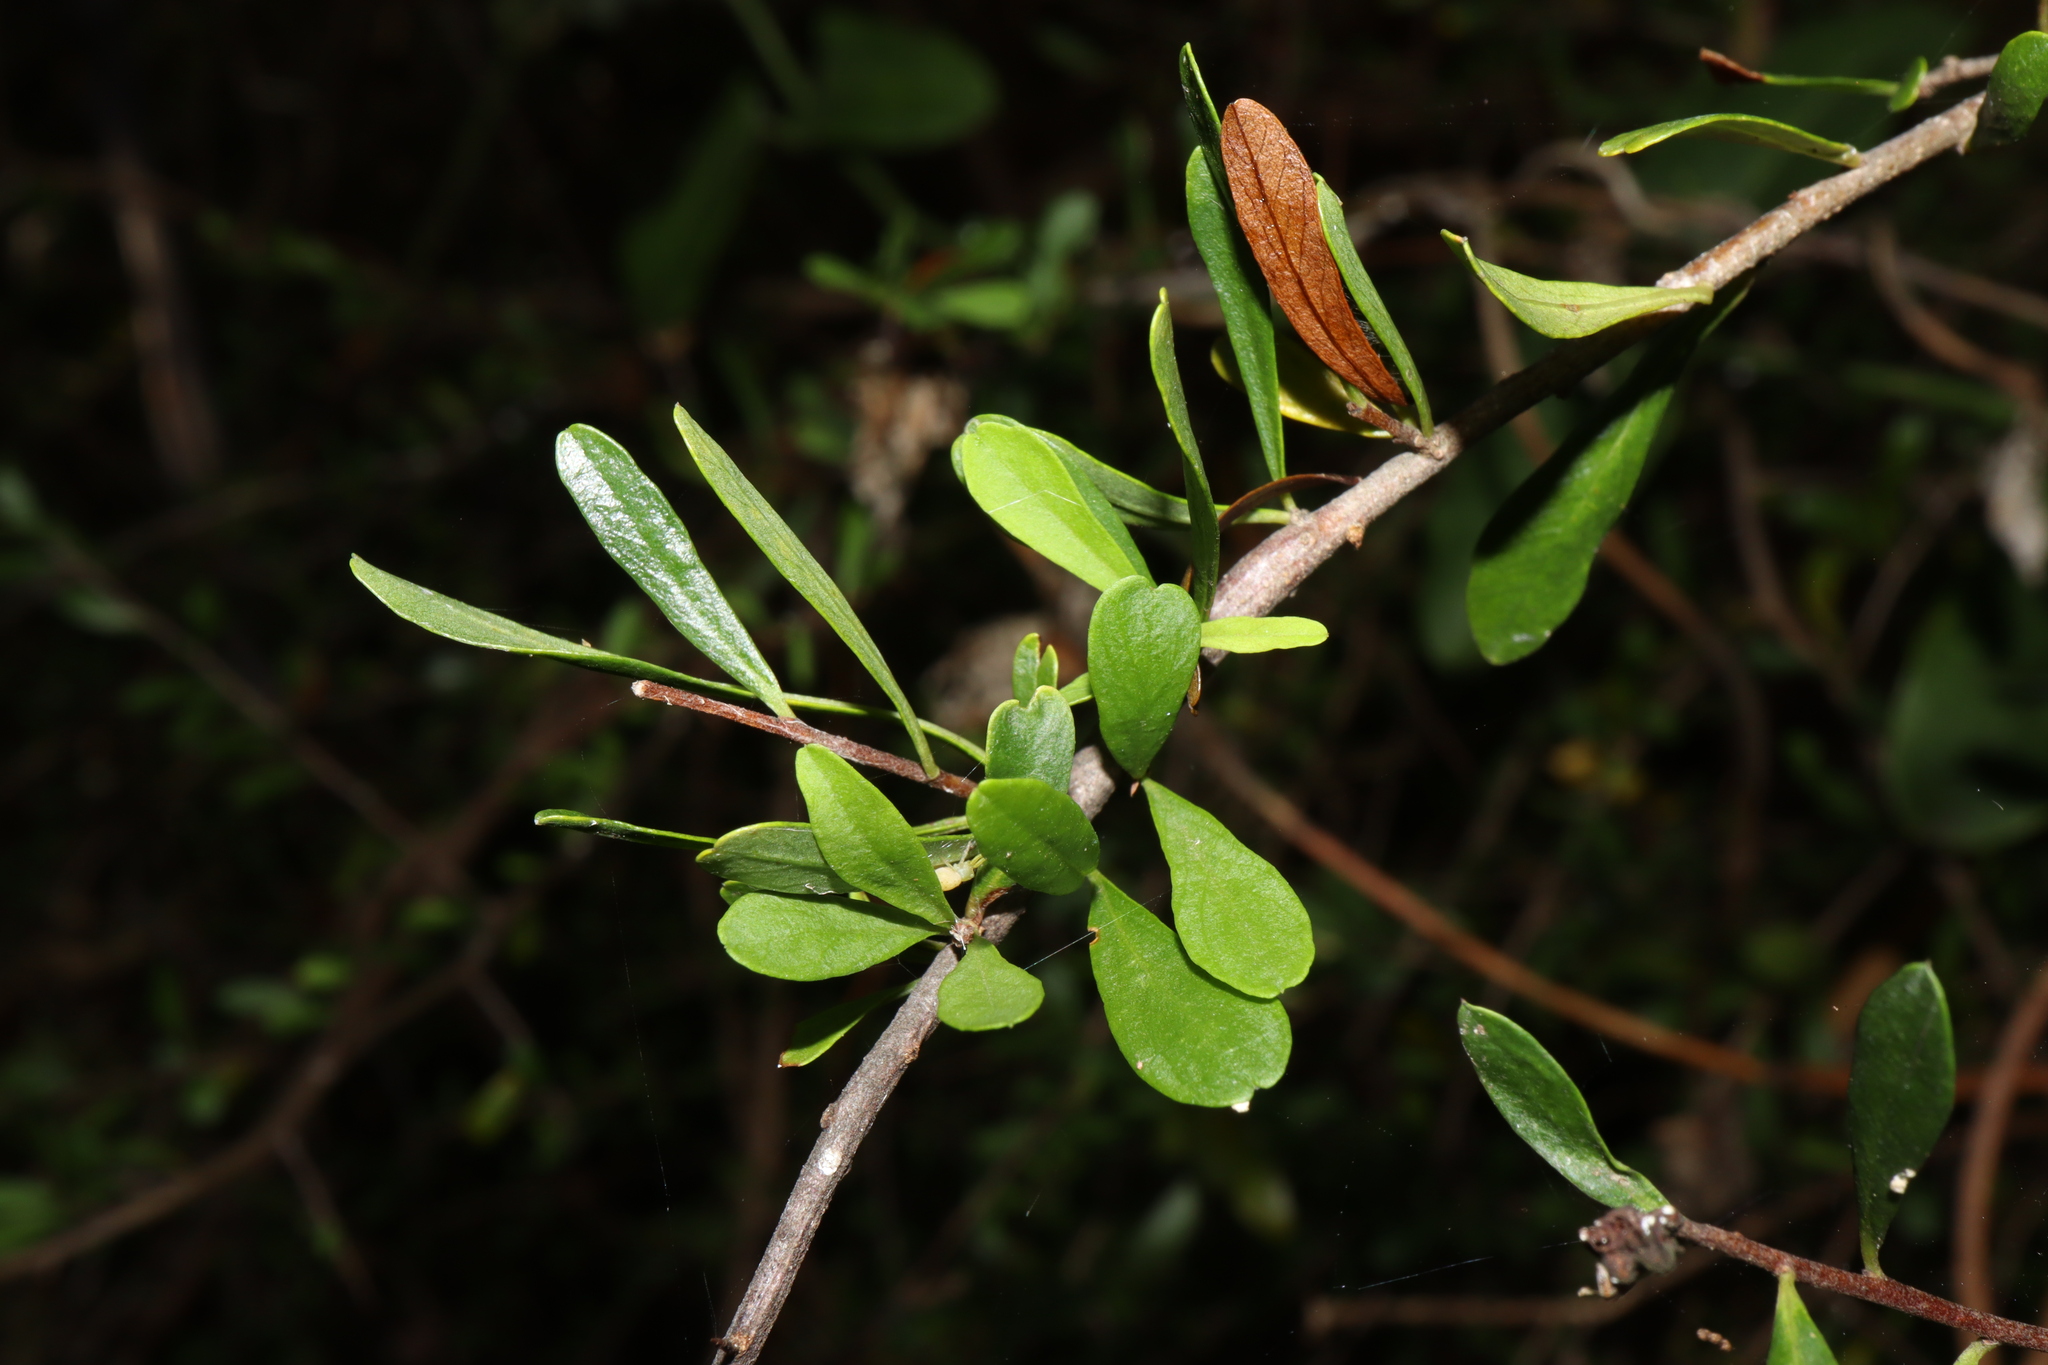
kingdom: Plantae
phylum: Tracheophyta
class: Magnoliopsida
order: Apiales
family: Pittosporaceae
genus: Bursaria
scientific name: Bursaria spinosa
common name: Australian blackthorn
